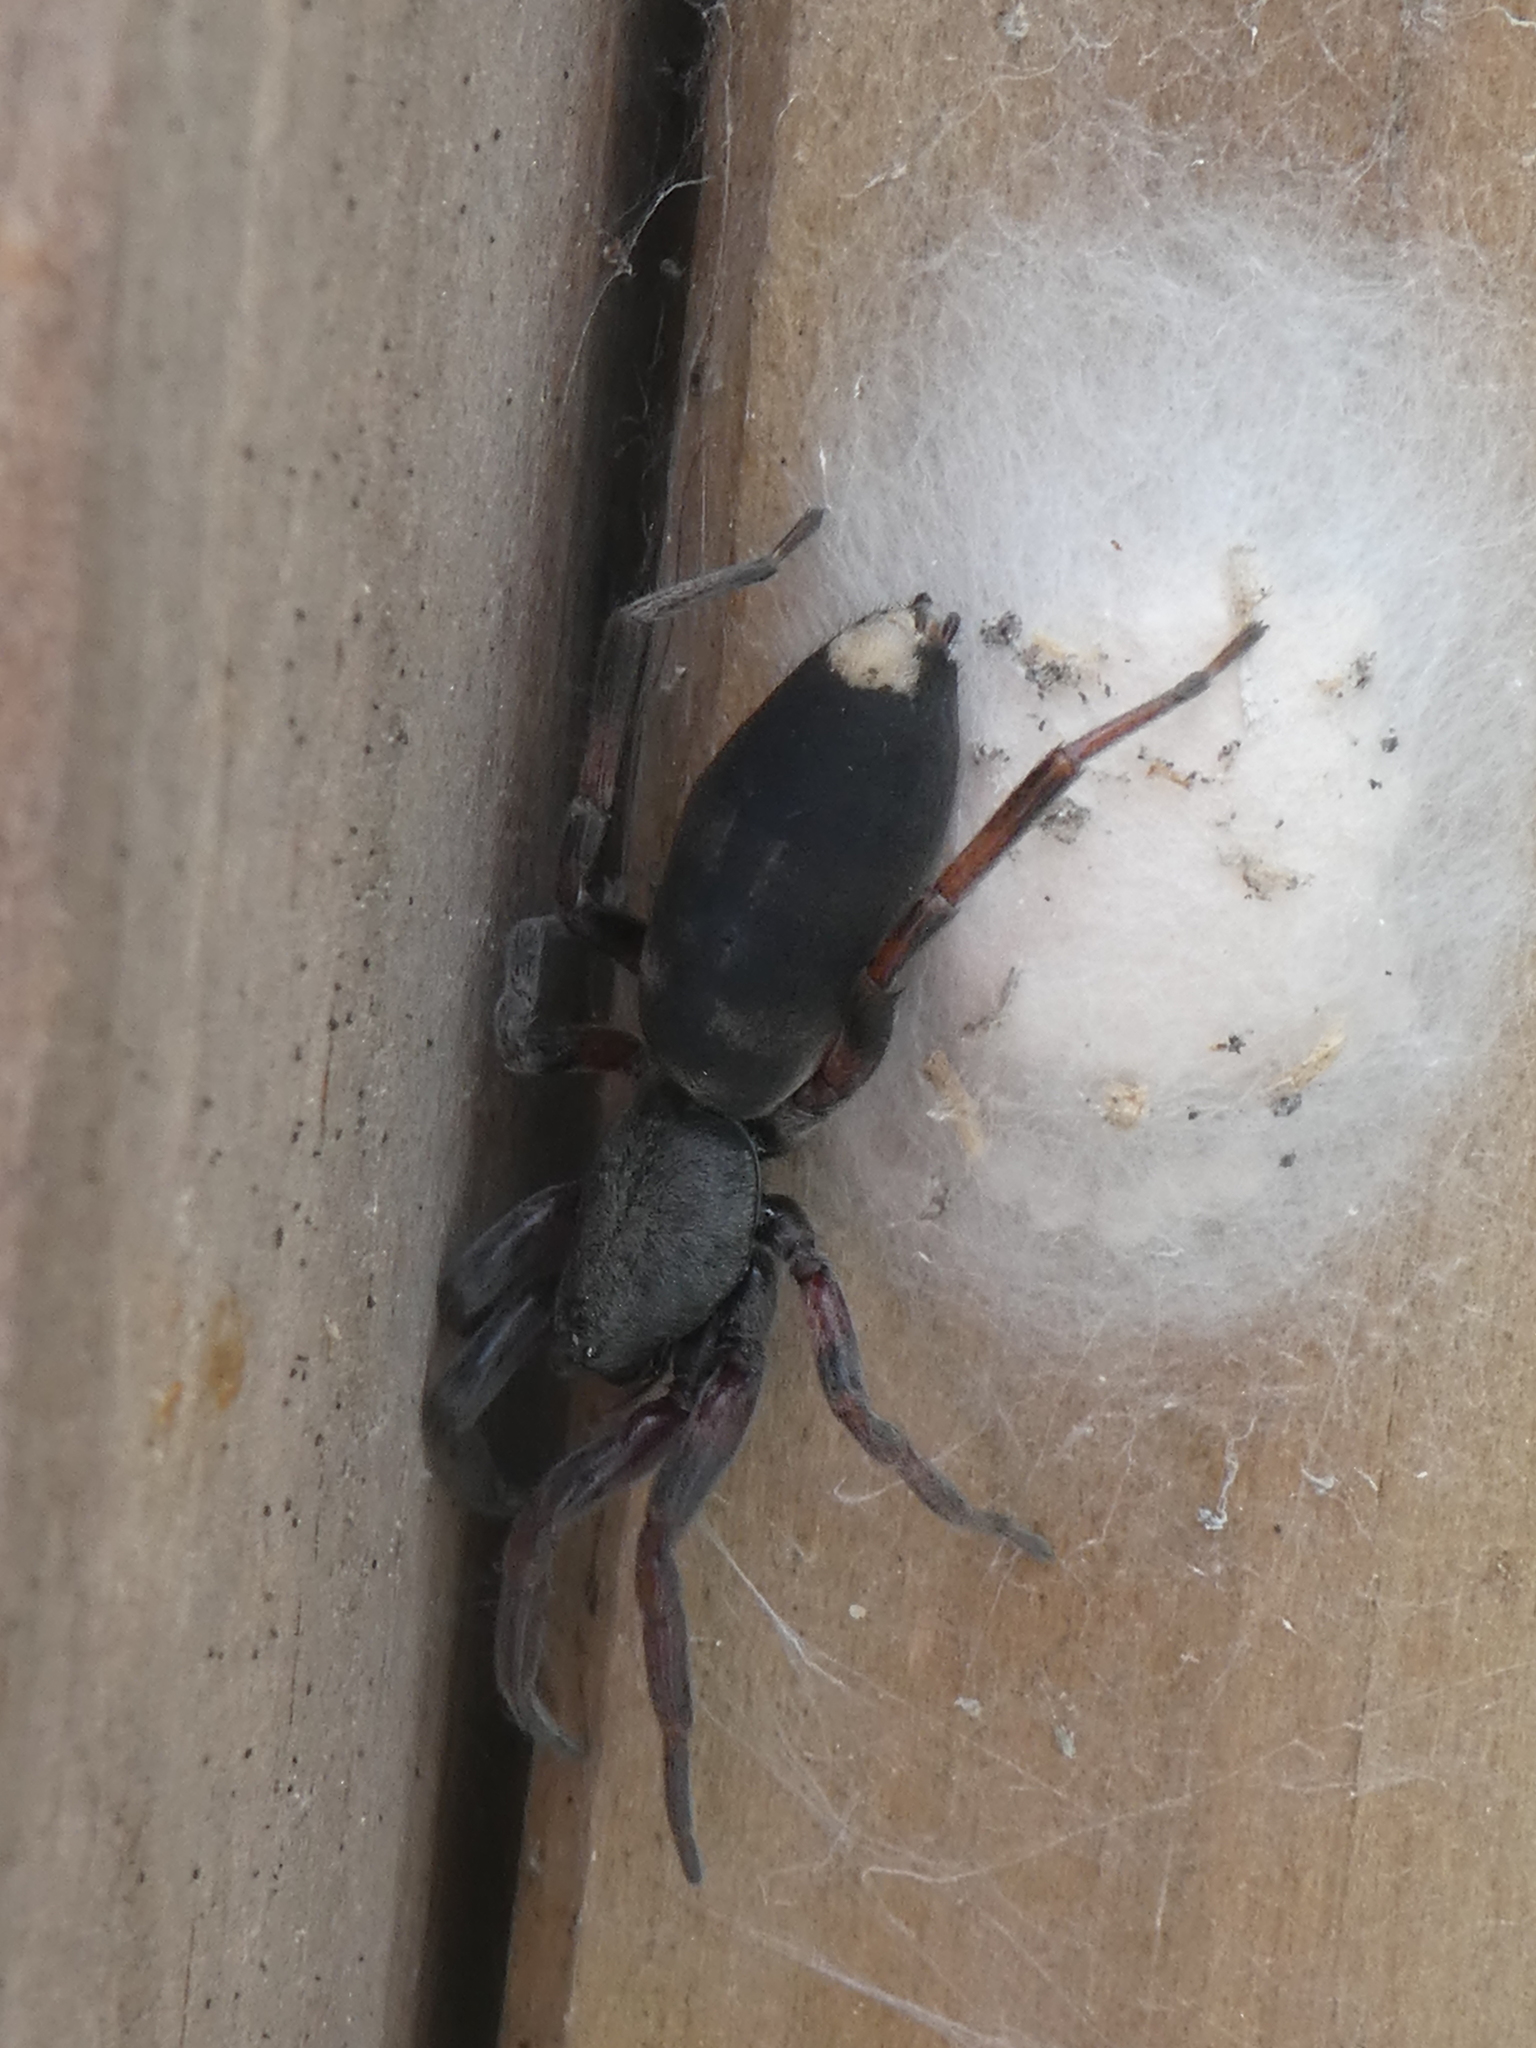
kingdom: Animalia
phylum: Arthropoda
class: Arachnida
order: Araneae
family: Lamponidae
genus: Lampona
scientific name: Lampona murina
